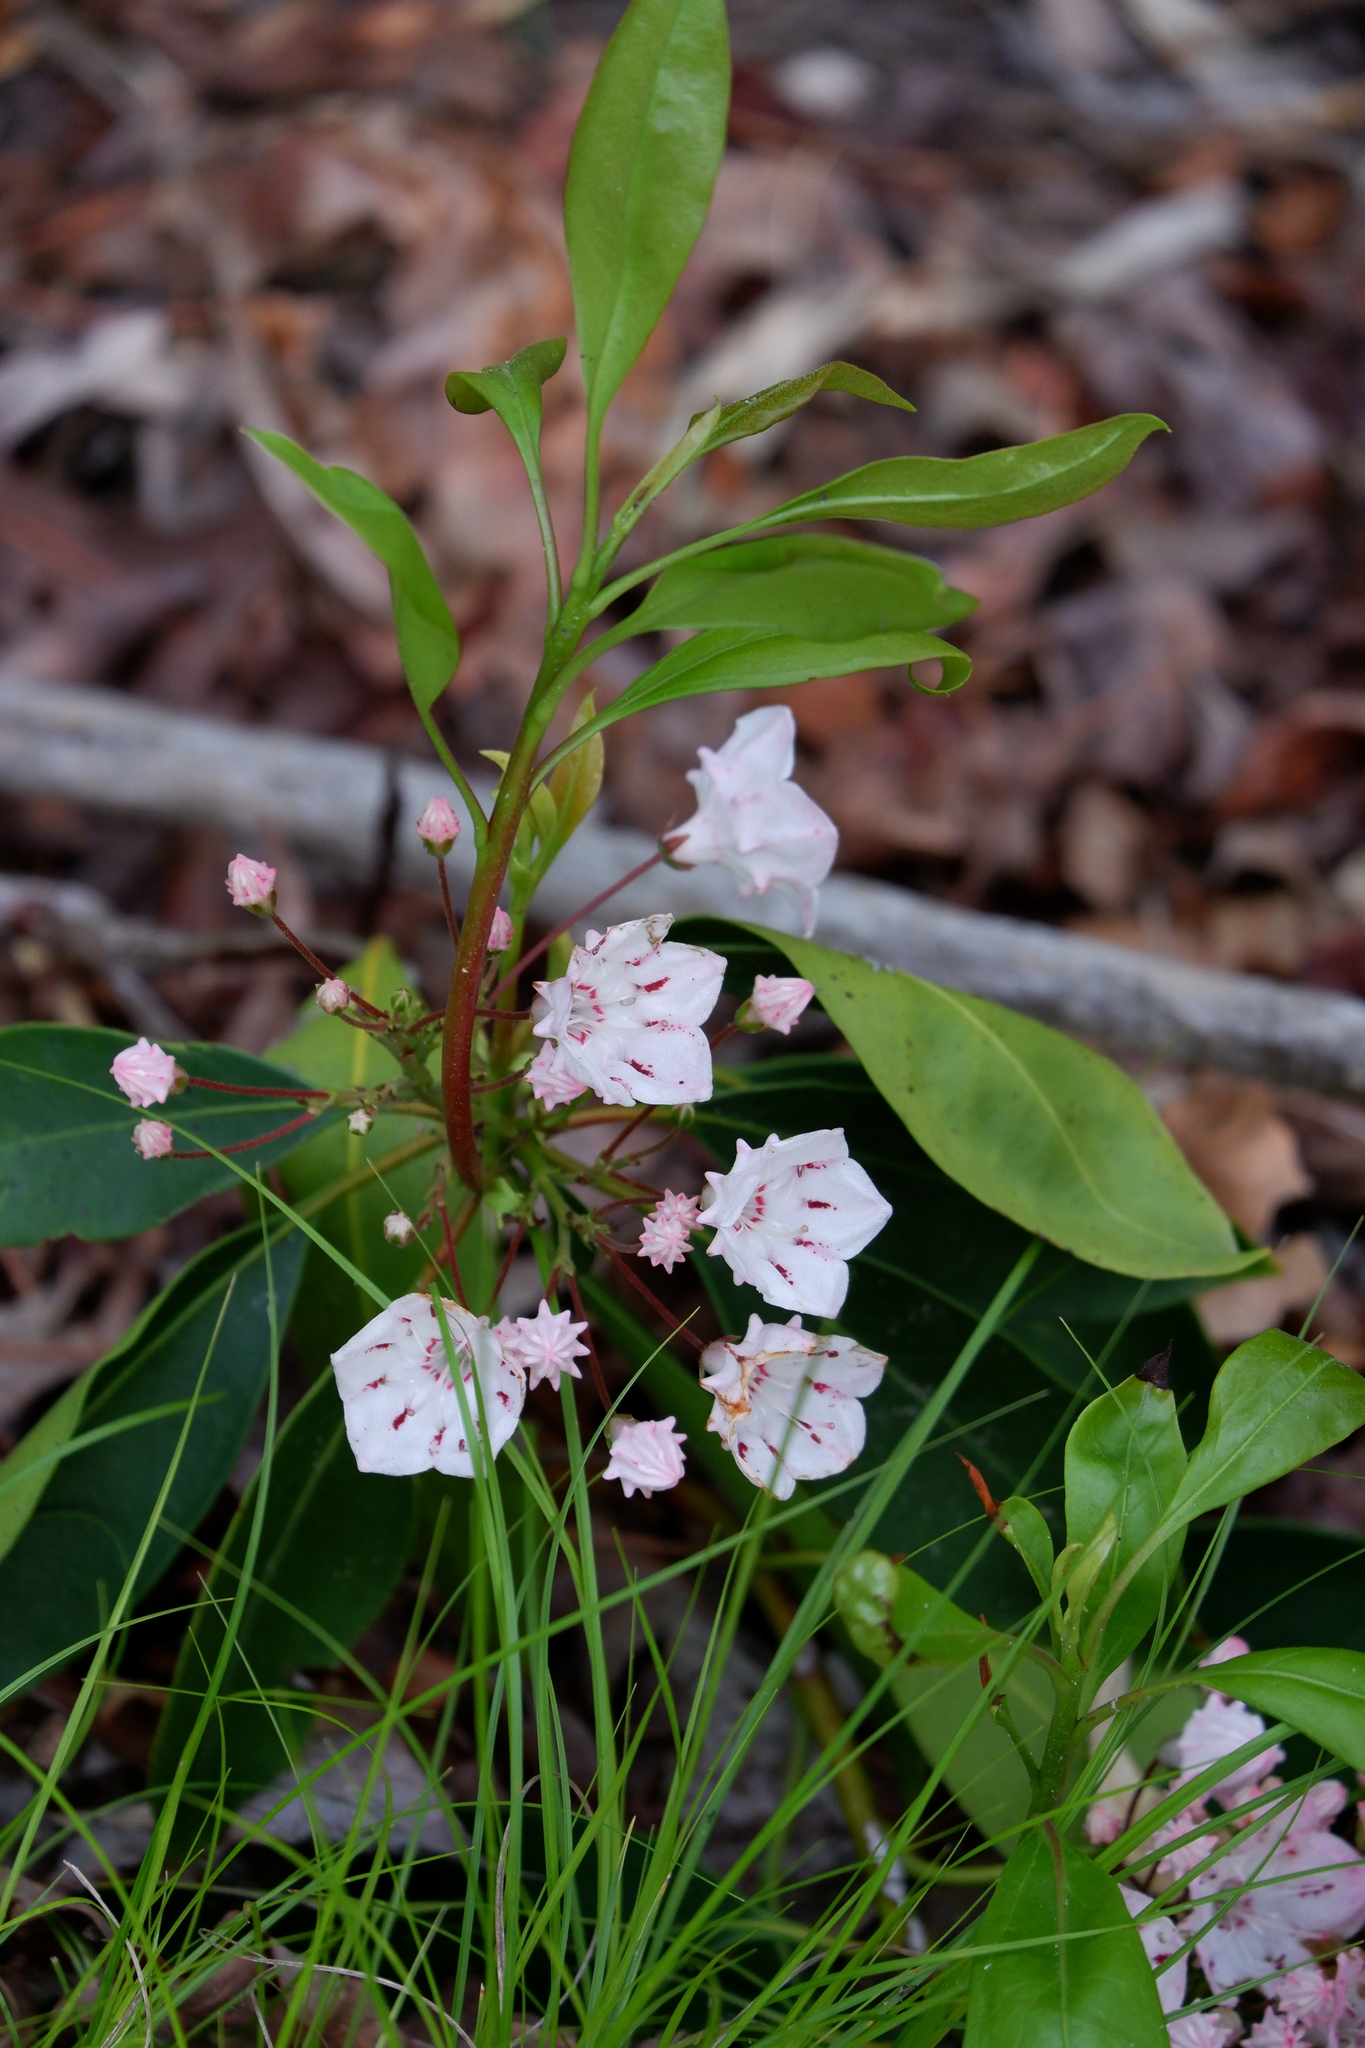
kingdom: Plantae
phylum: Tracheophyta
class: Magnoliopsida
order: Ericales
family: Ericaceae
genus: Kalmia
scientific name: Kalmia latifolia
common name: Mountain-laurel
